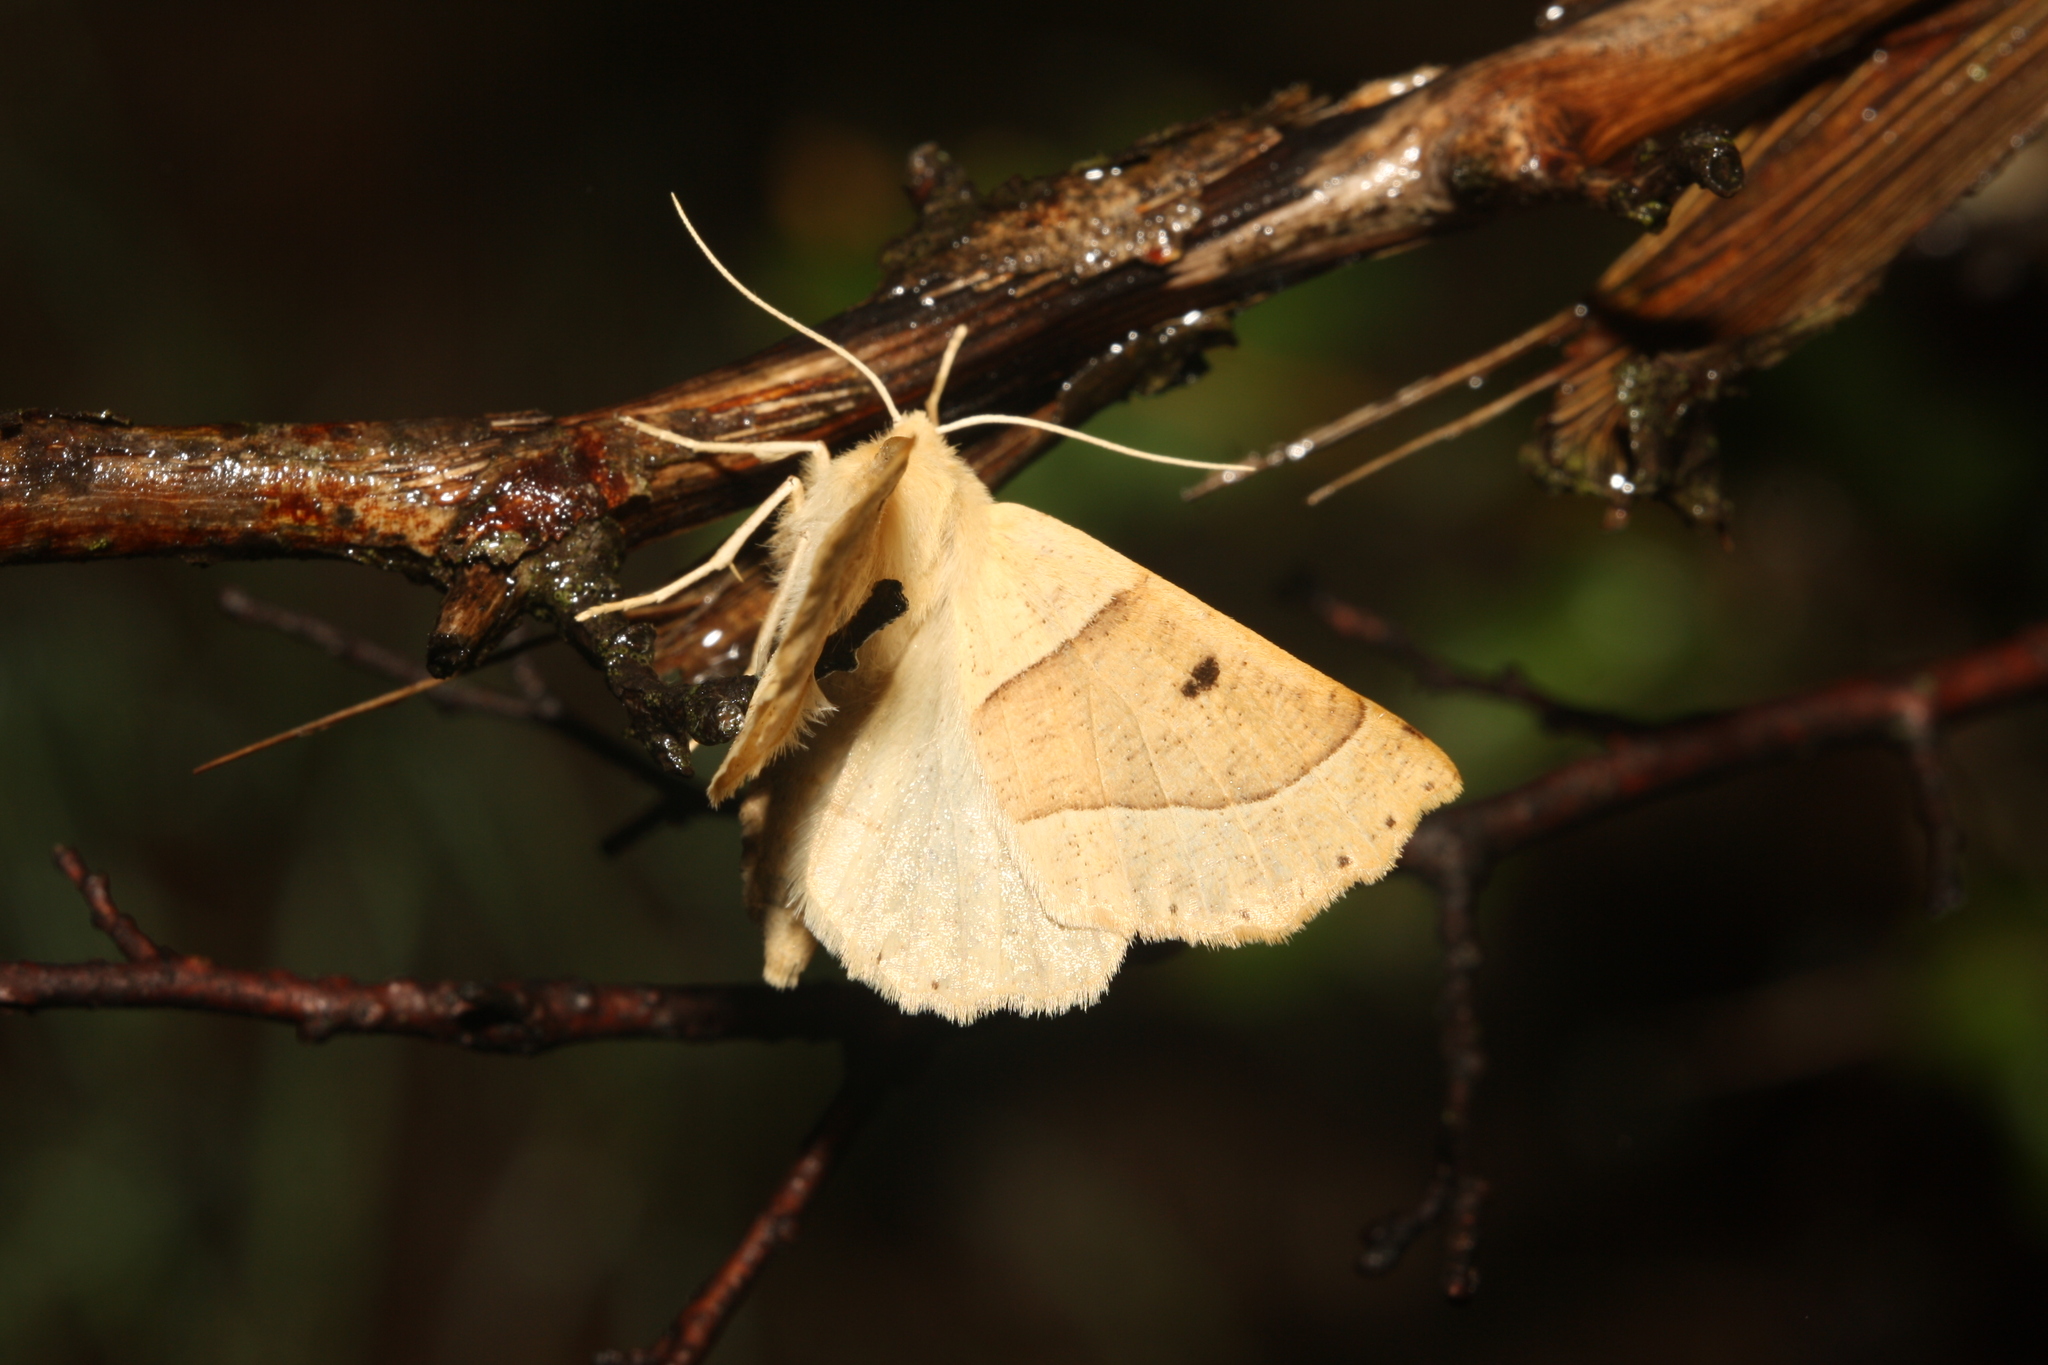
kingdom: Animalia
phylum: Arthropoda
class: Insecta
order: Lepidoptera
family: Geometridae
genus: Crocallis
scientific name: Crocallis elinguaria
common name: Scalloped oak
